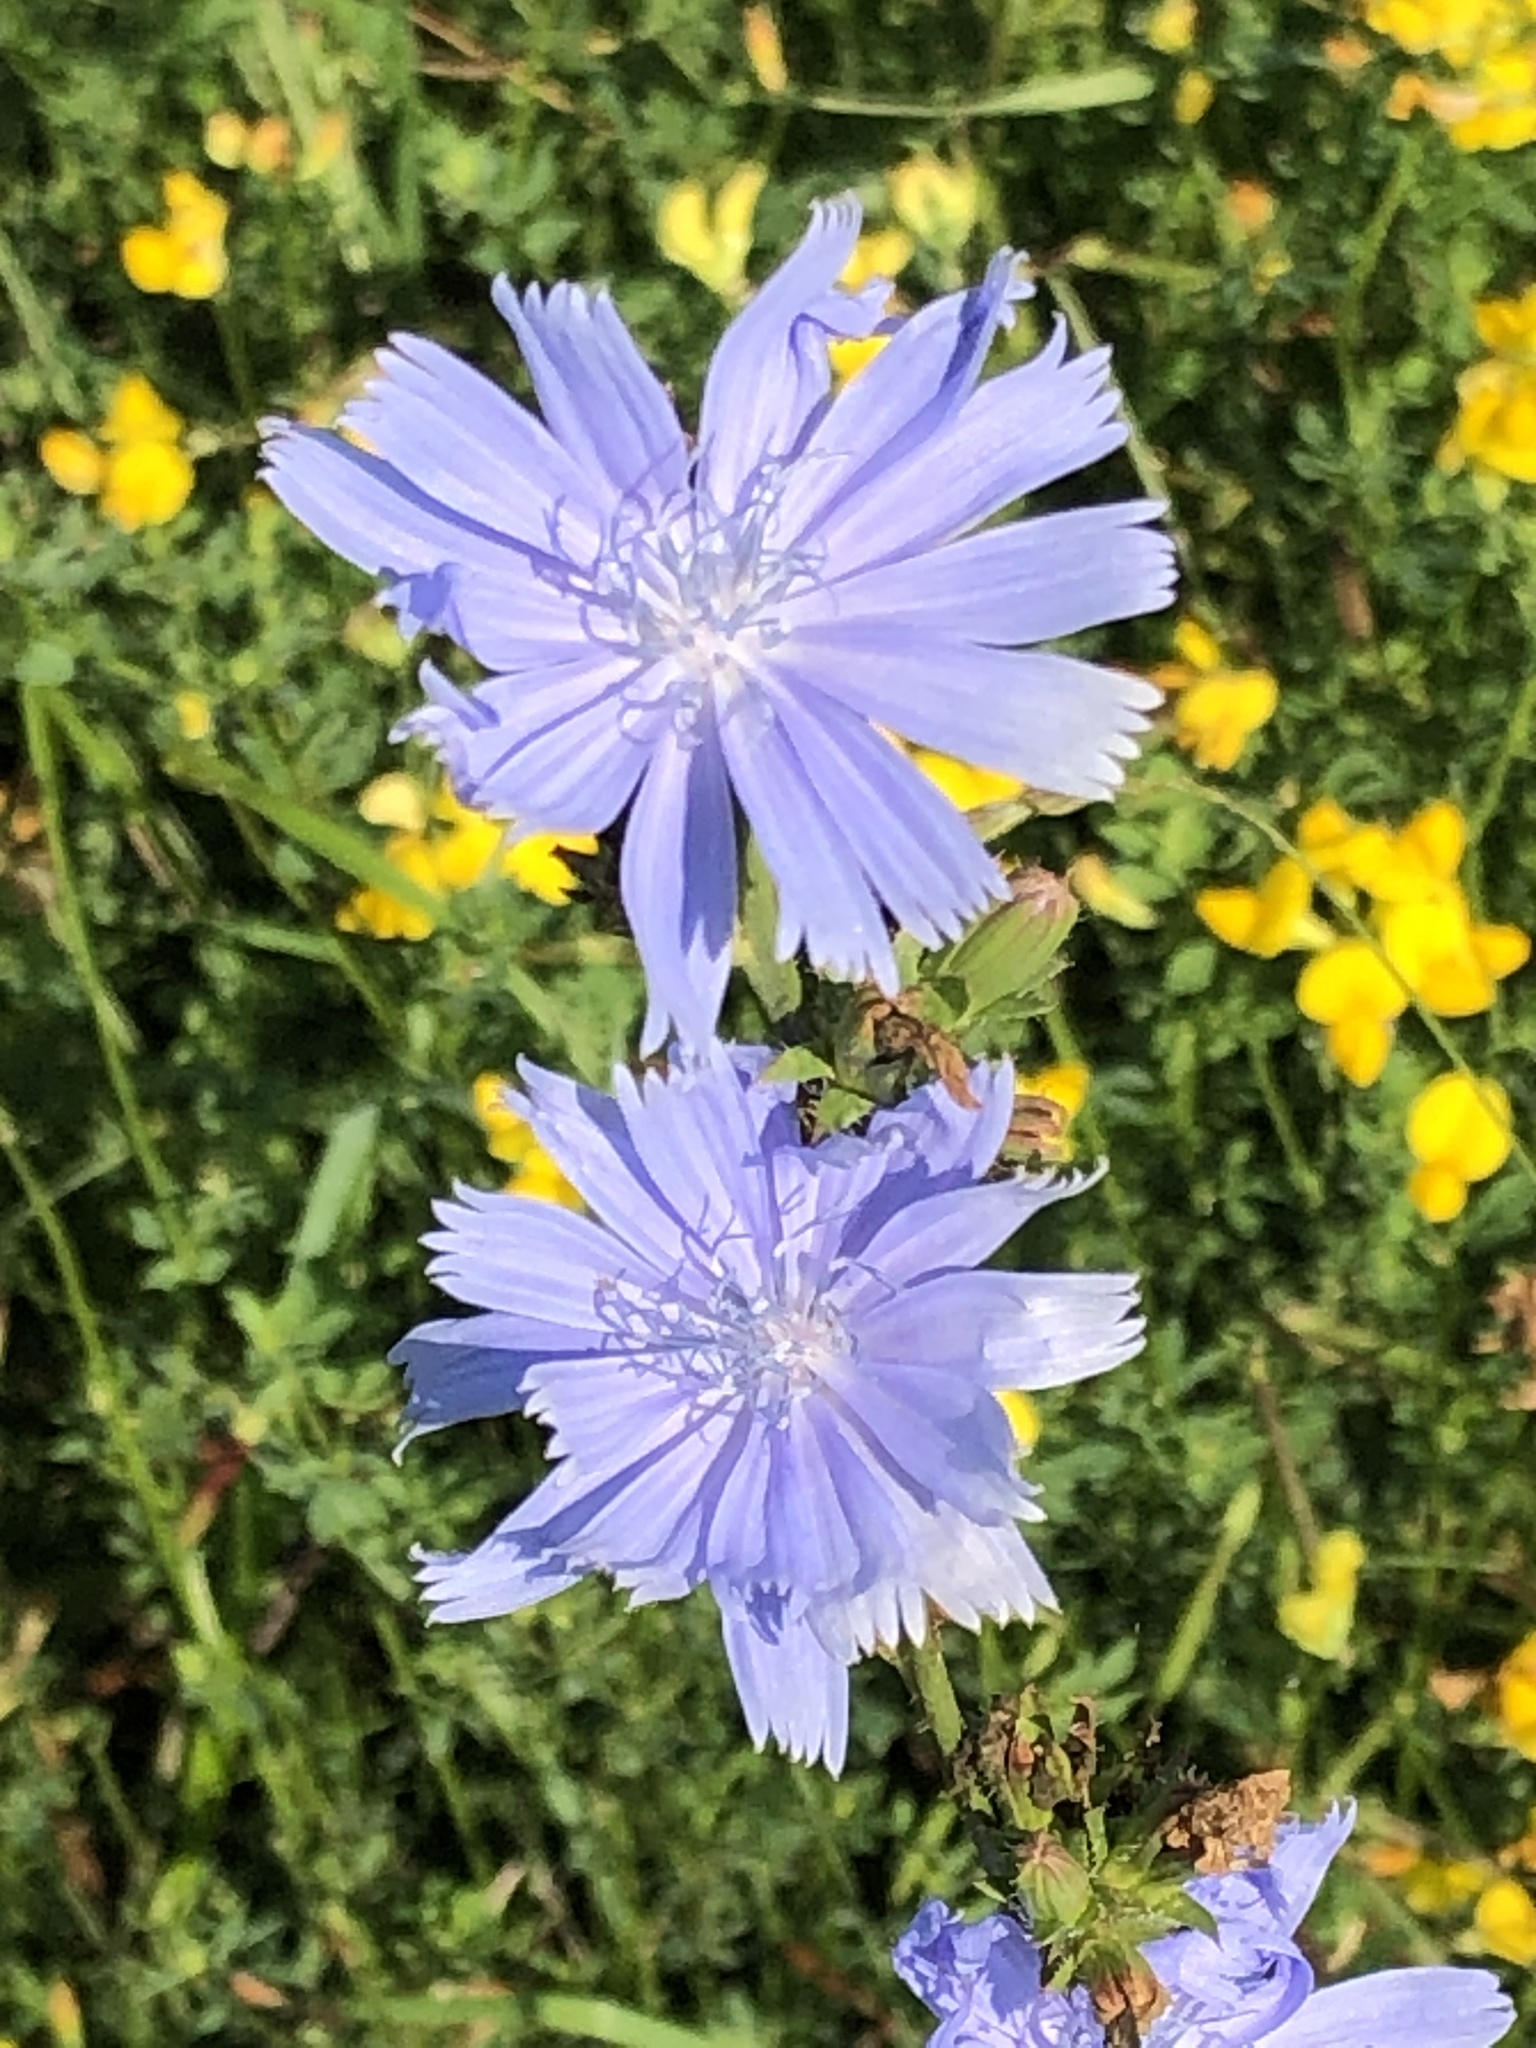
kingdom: Plantae
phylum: Tracheophyta
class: Magnoliopsida
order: Asterales
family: Asteraceae
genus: Cichorium
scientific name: Cichorium intybus
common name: Chicory
